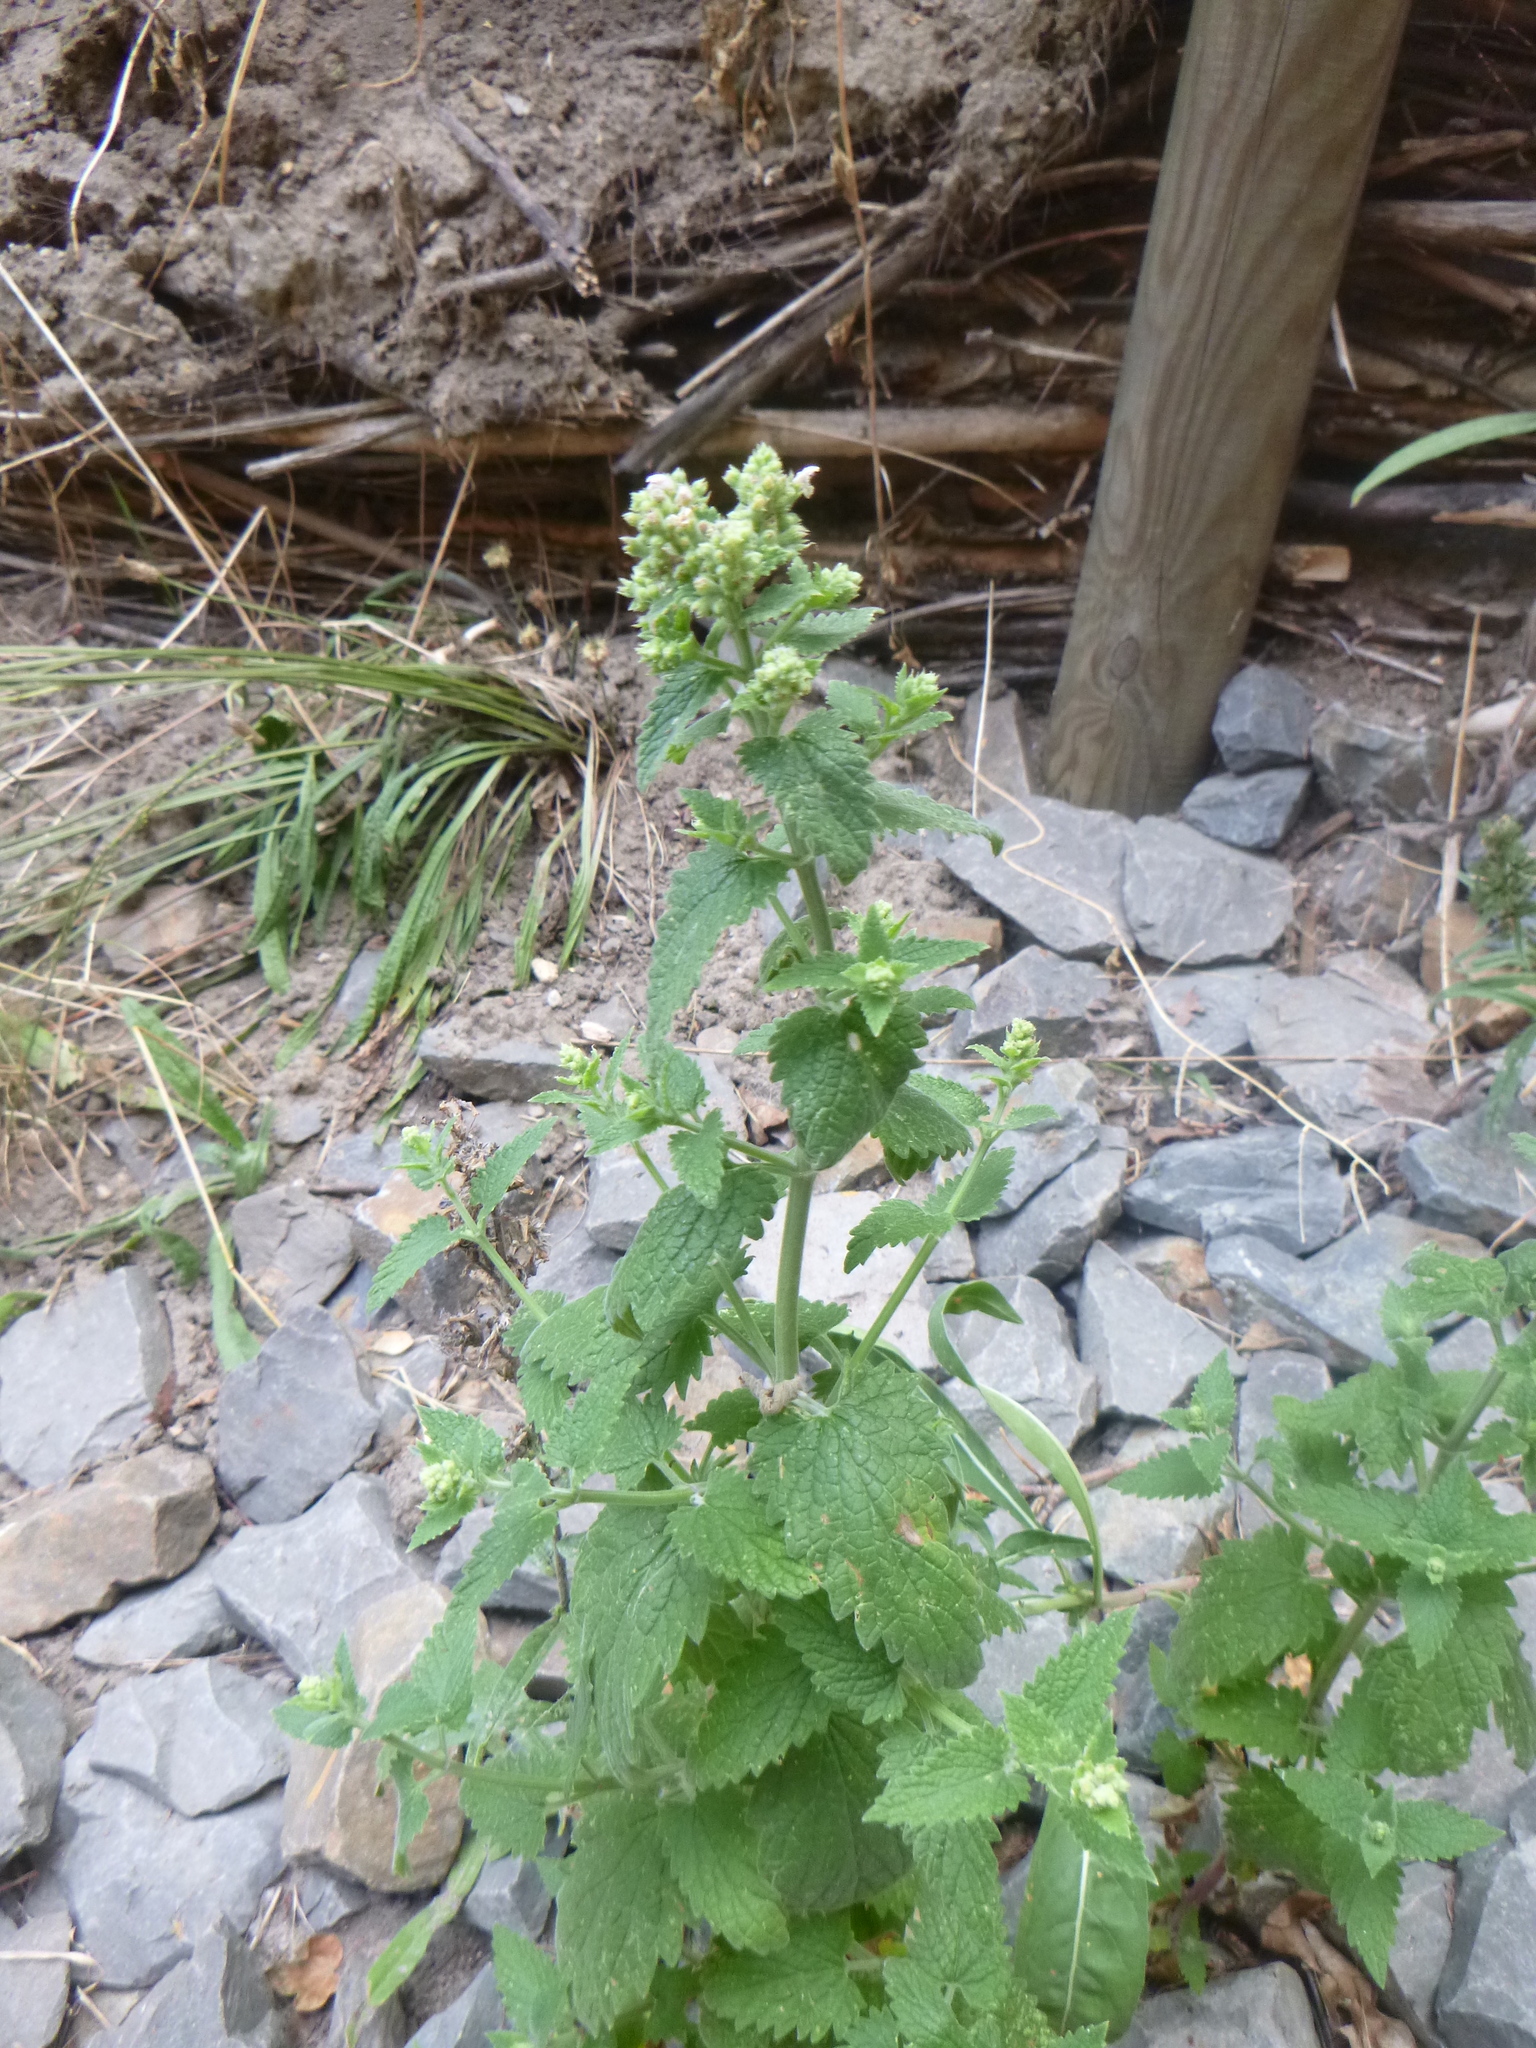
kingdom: Plantae
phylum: Tracheophyta
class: Magnoliopsida
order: Lamiales
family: Lamiaceae
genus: Nepeta
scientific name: Nepeta cataria
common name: Catnip
